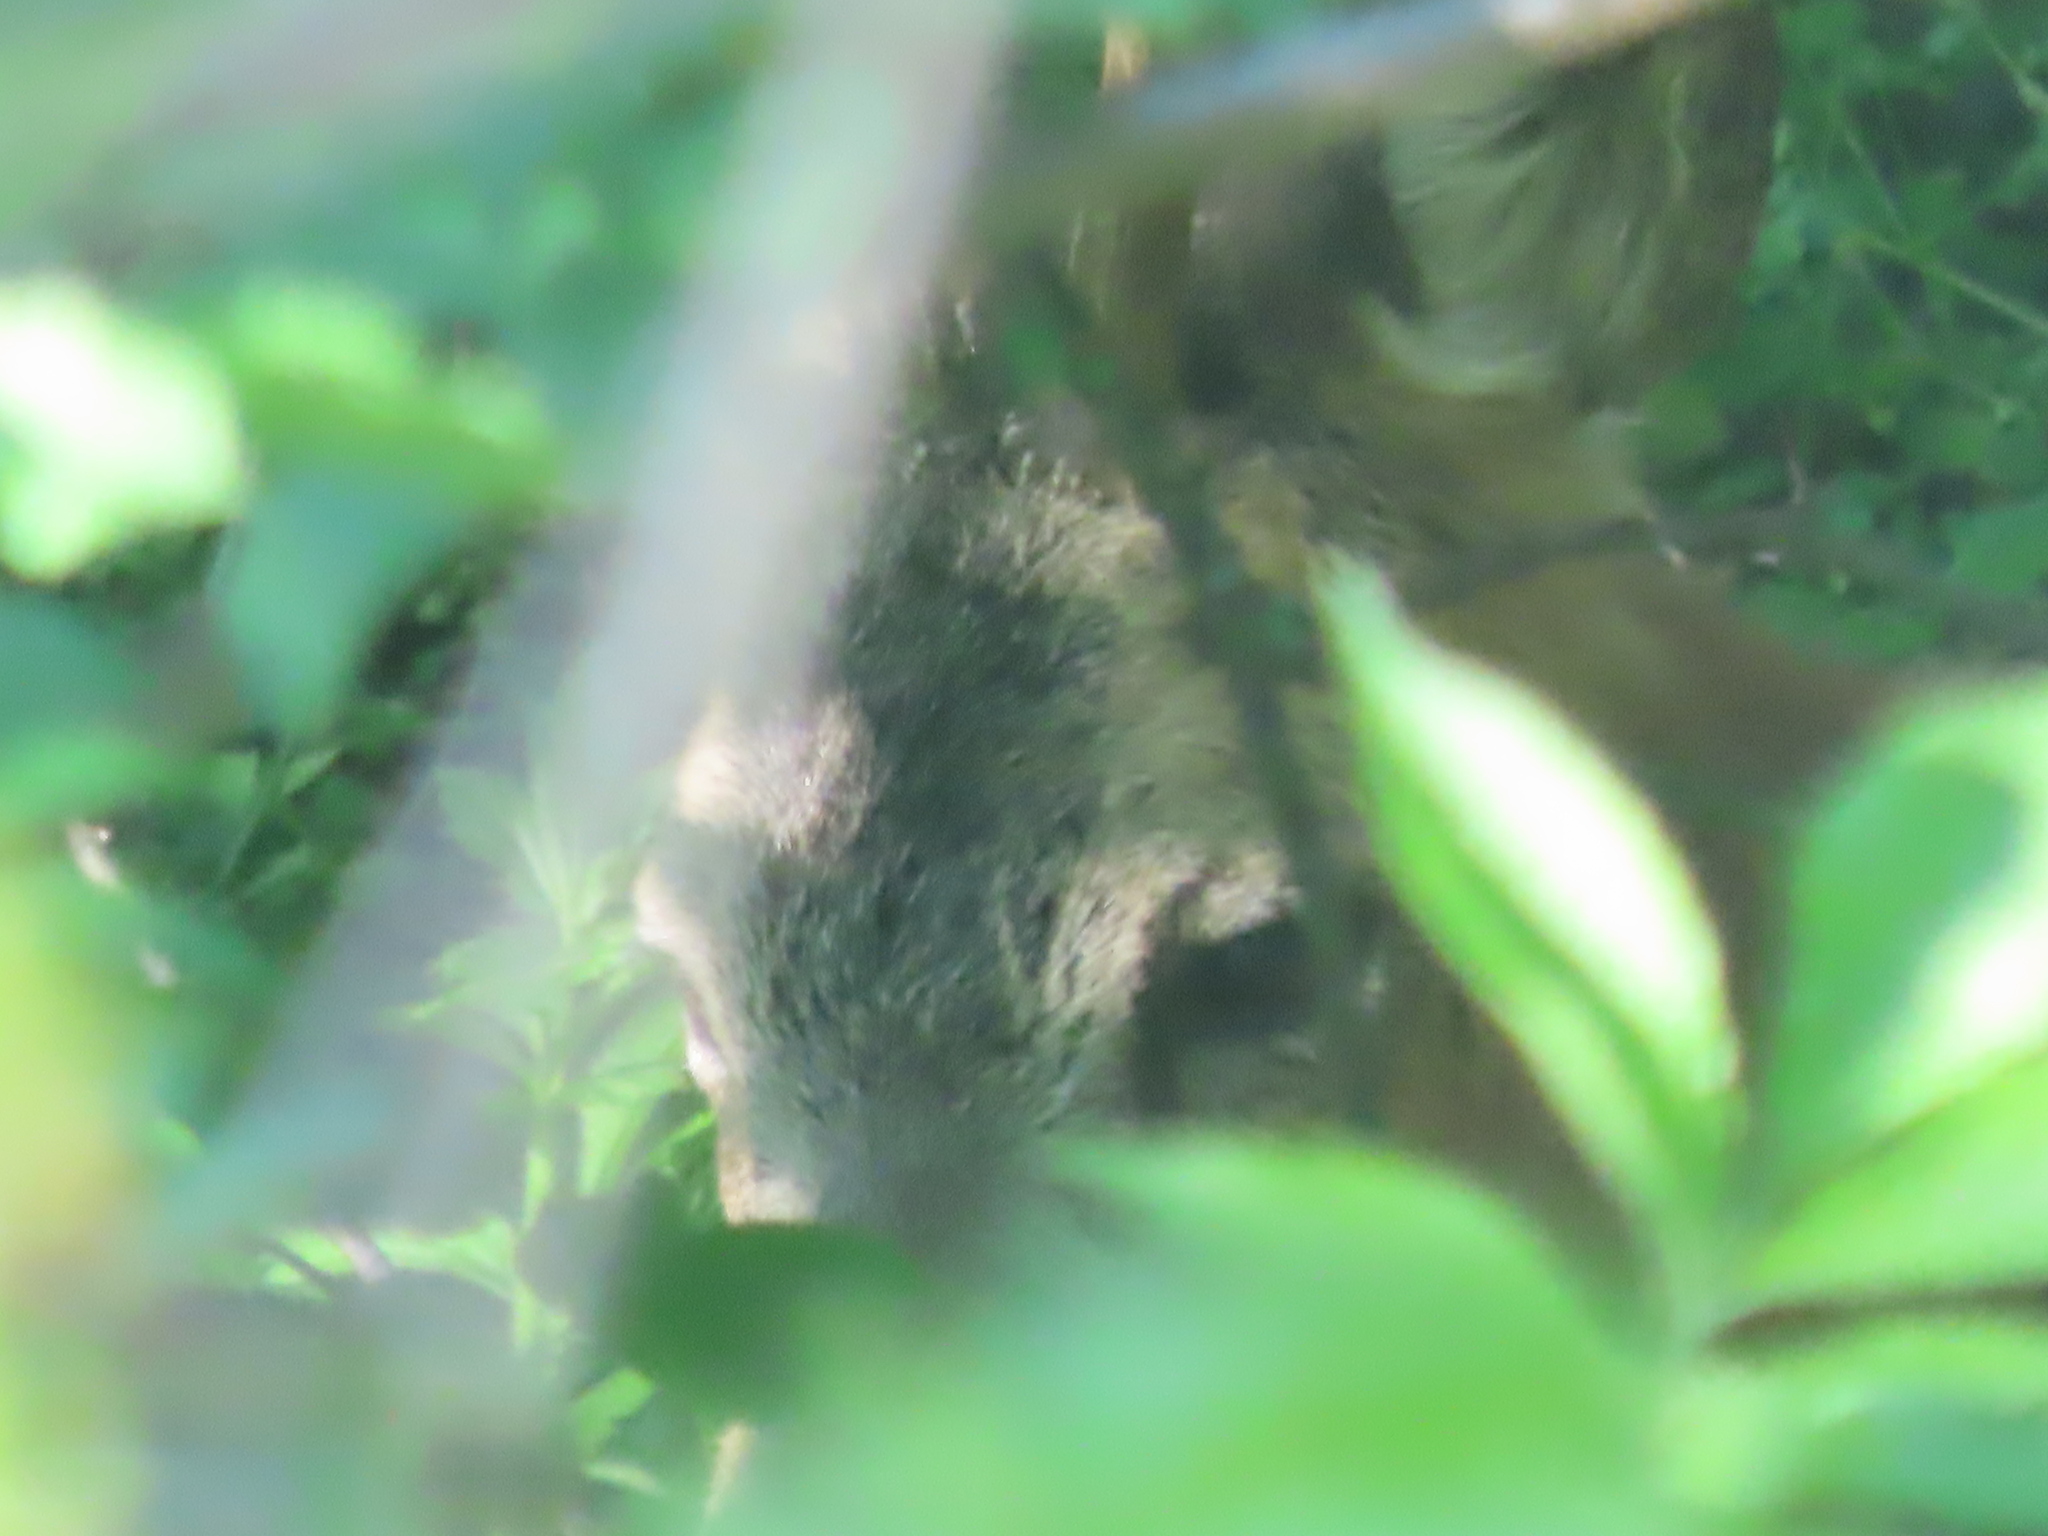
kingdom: Animalia
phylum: Chordata
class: Mammalia
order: Artiodactyla
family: Cervidae
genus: Capreolus
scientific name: Capreolus capreolus
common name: Western roe deer
